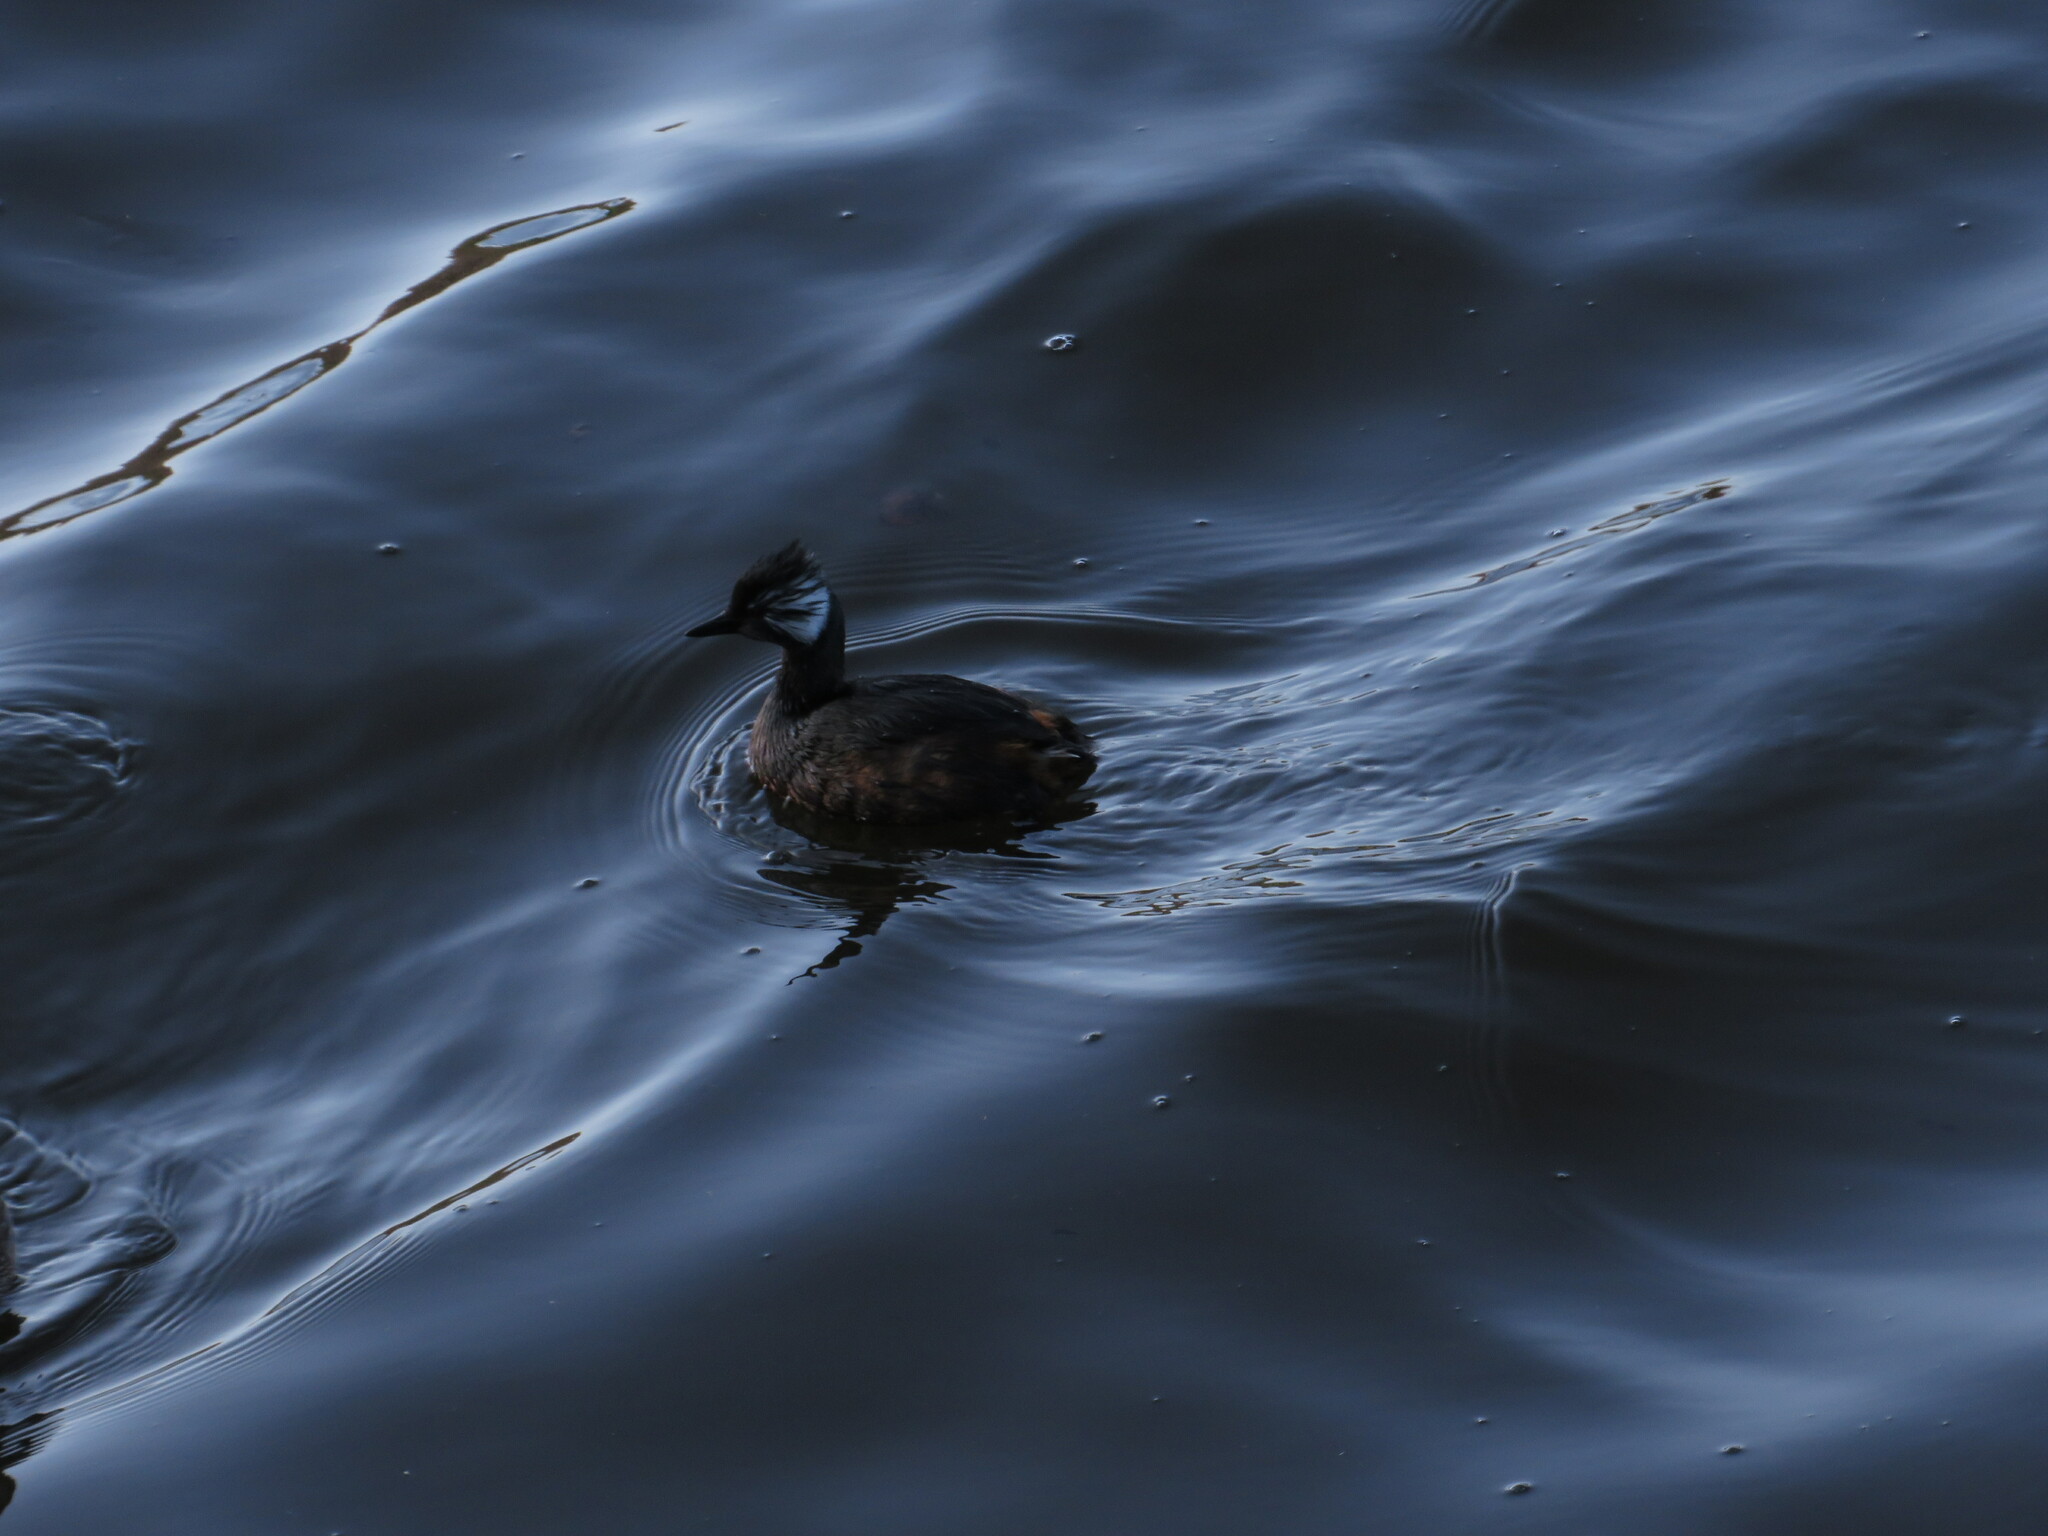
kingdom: Animalia
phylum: Chordata
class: Aves
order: Podicipediformes
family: Podicipedidae
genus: Rollandia
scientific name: Rollandia rolland
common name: White-tufted grebe
